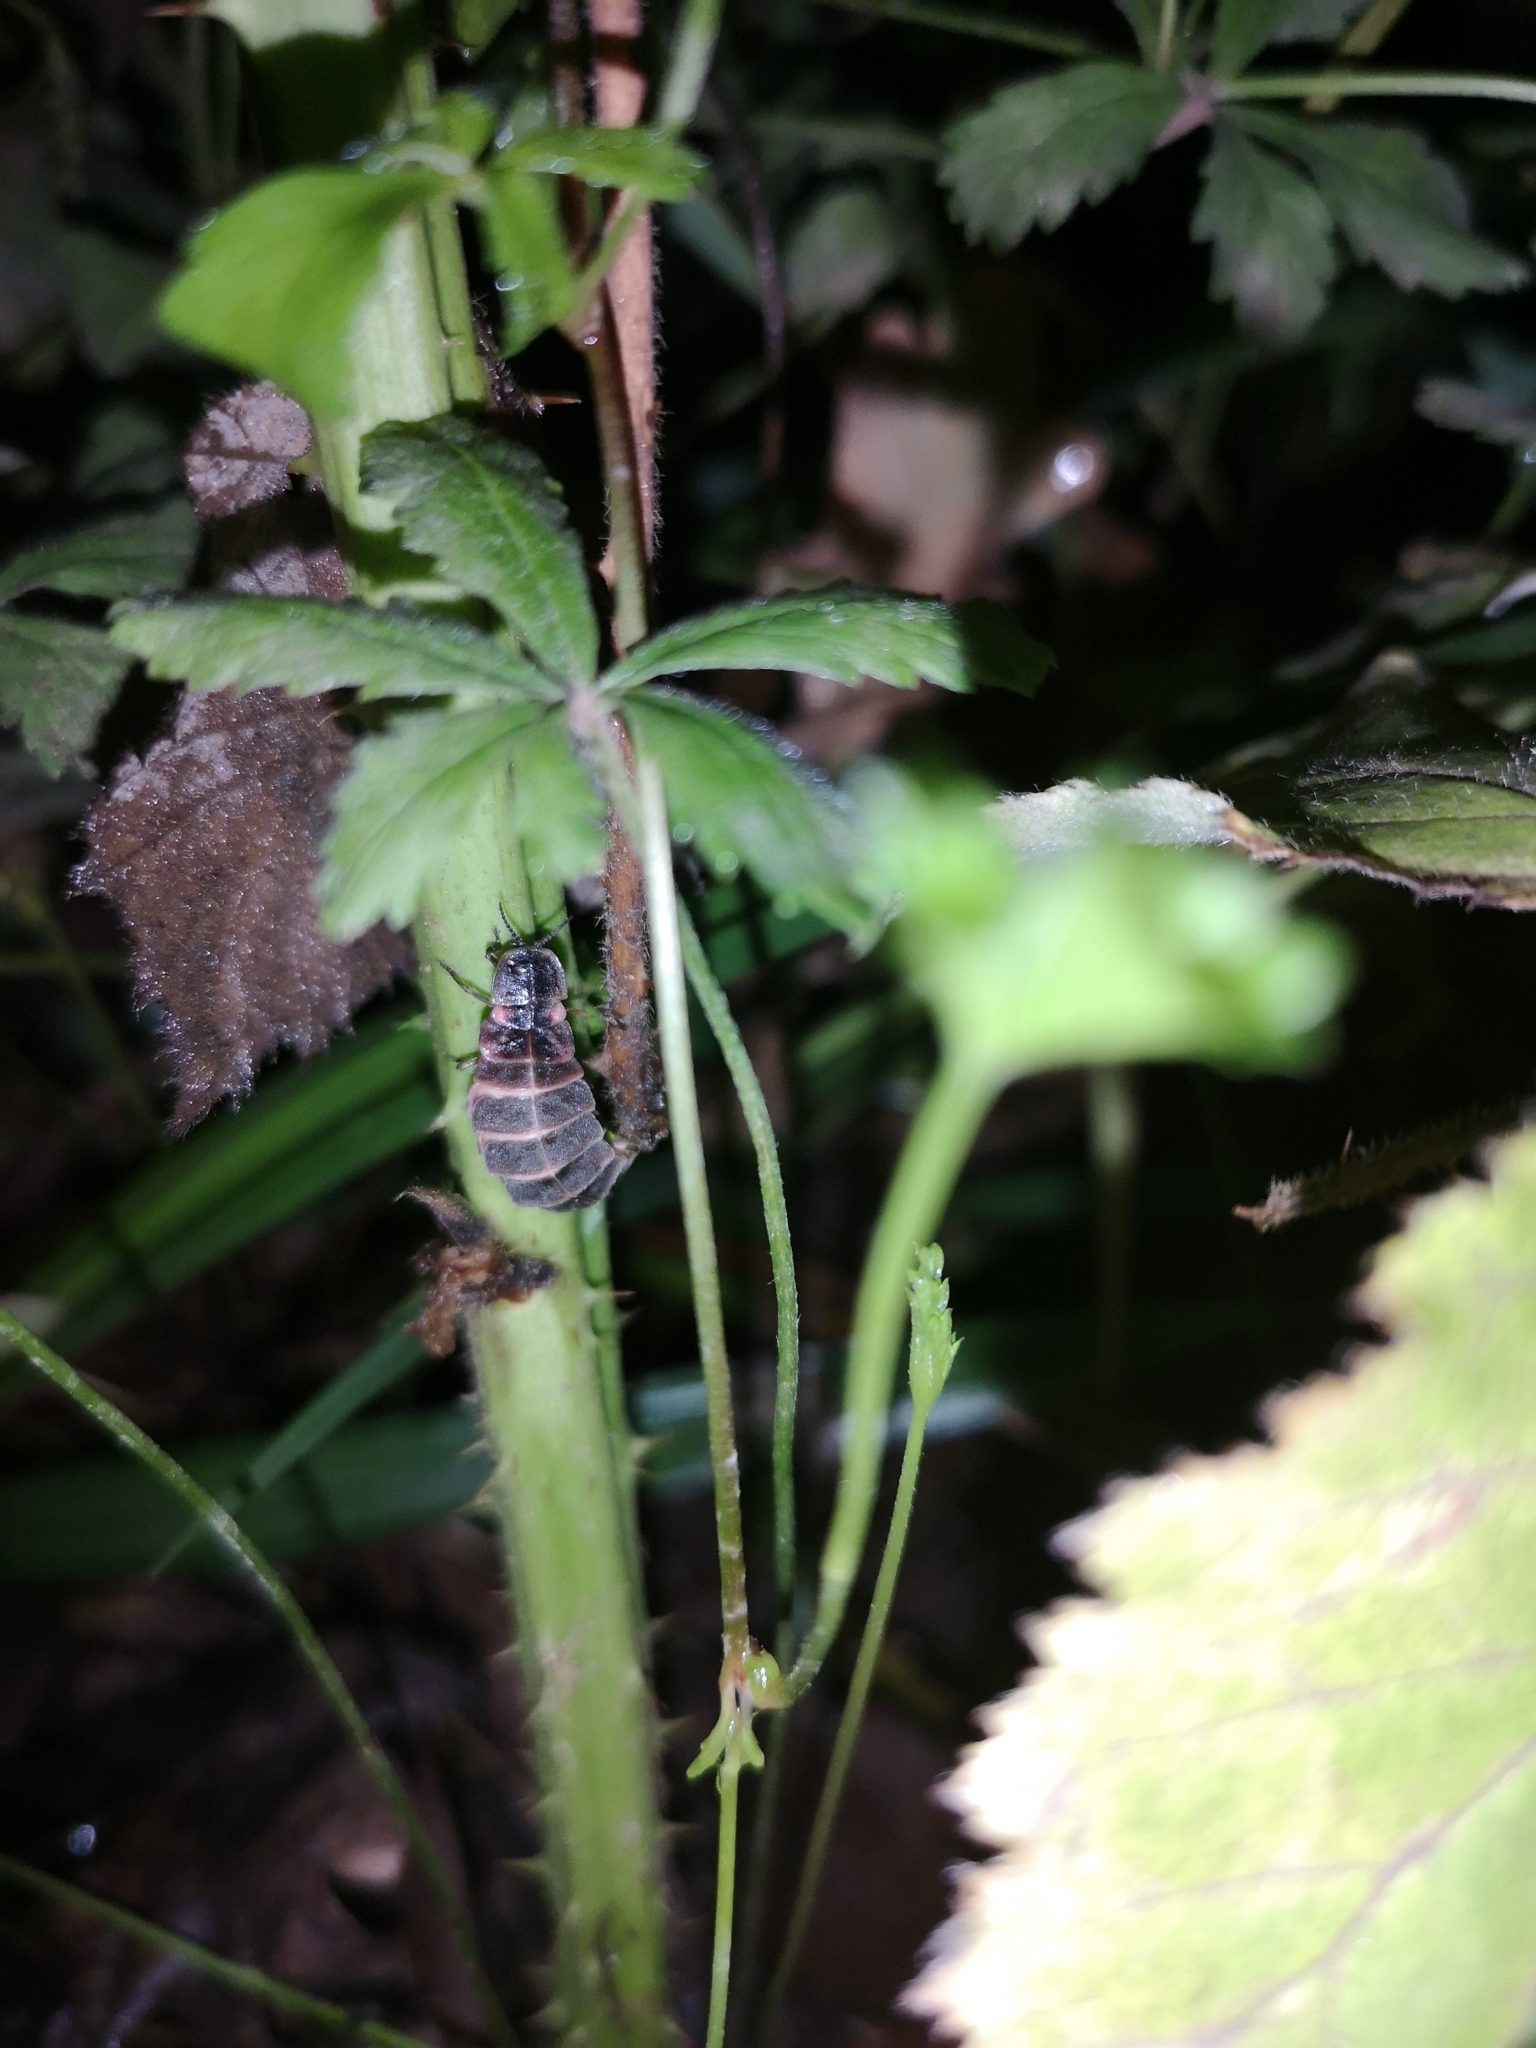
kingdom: Animalia
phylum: Arthropoda
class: Insecta
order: Coleoptera
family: Lampyridae
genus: Lampyris
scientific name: Lampyris noctiluca
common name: Glow-worm
